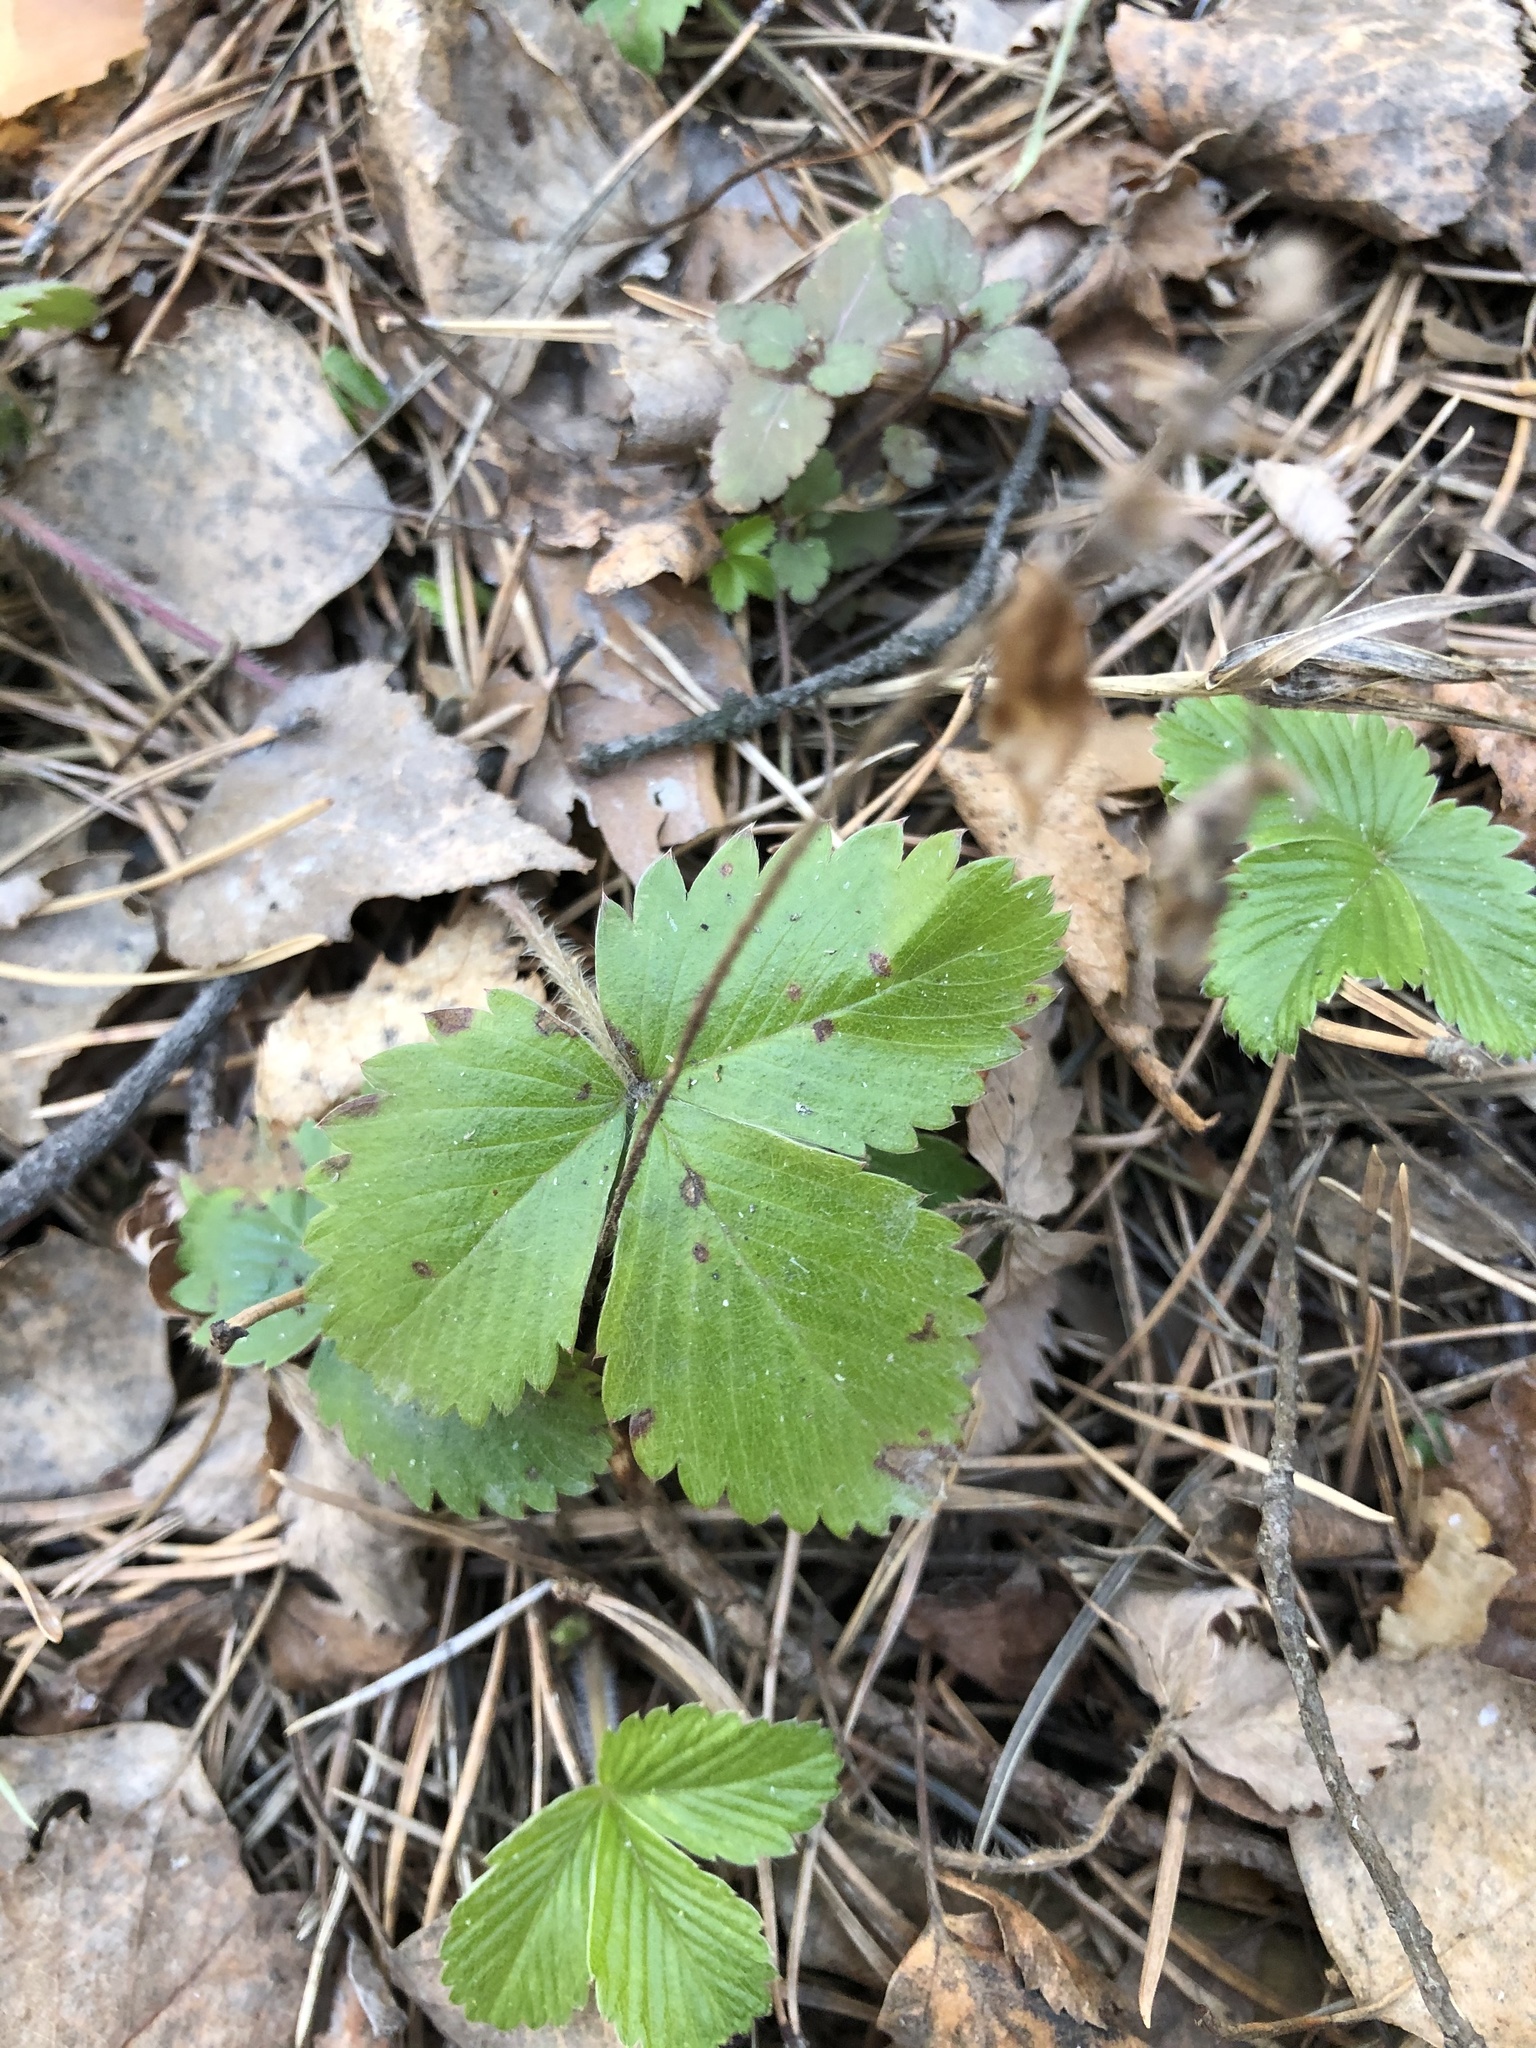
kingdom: Plantae
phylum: Tracheophyta
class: Magnoliopsida
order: Rosales
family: Rosaceae
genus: Fragaria
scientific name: Fragaria vesca
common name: Wild strawberry
